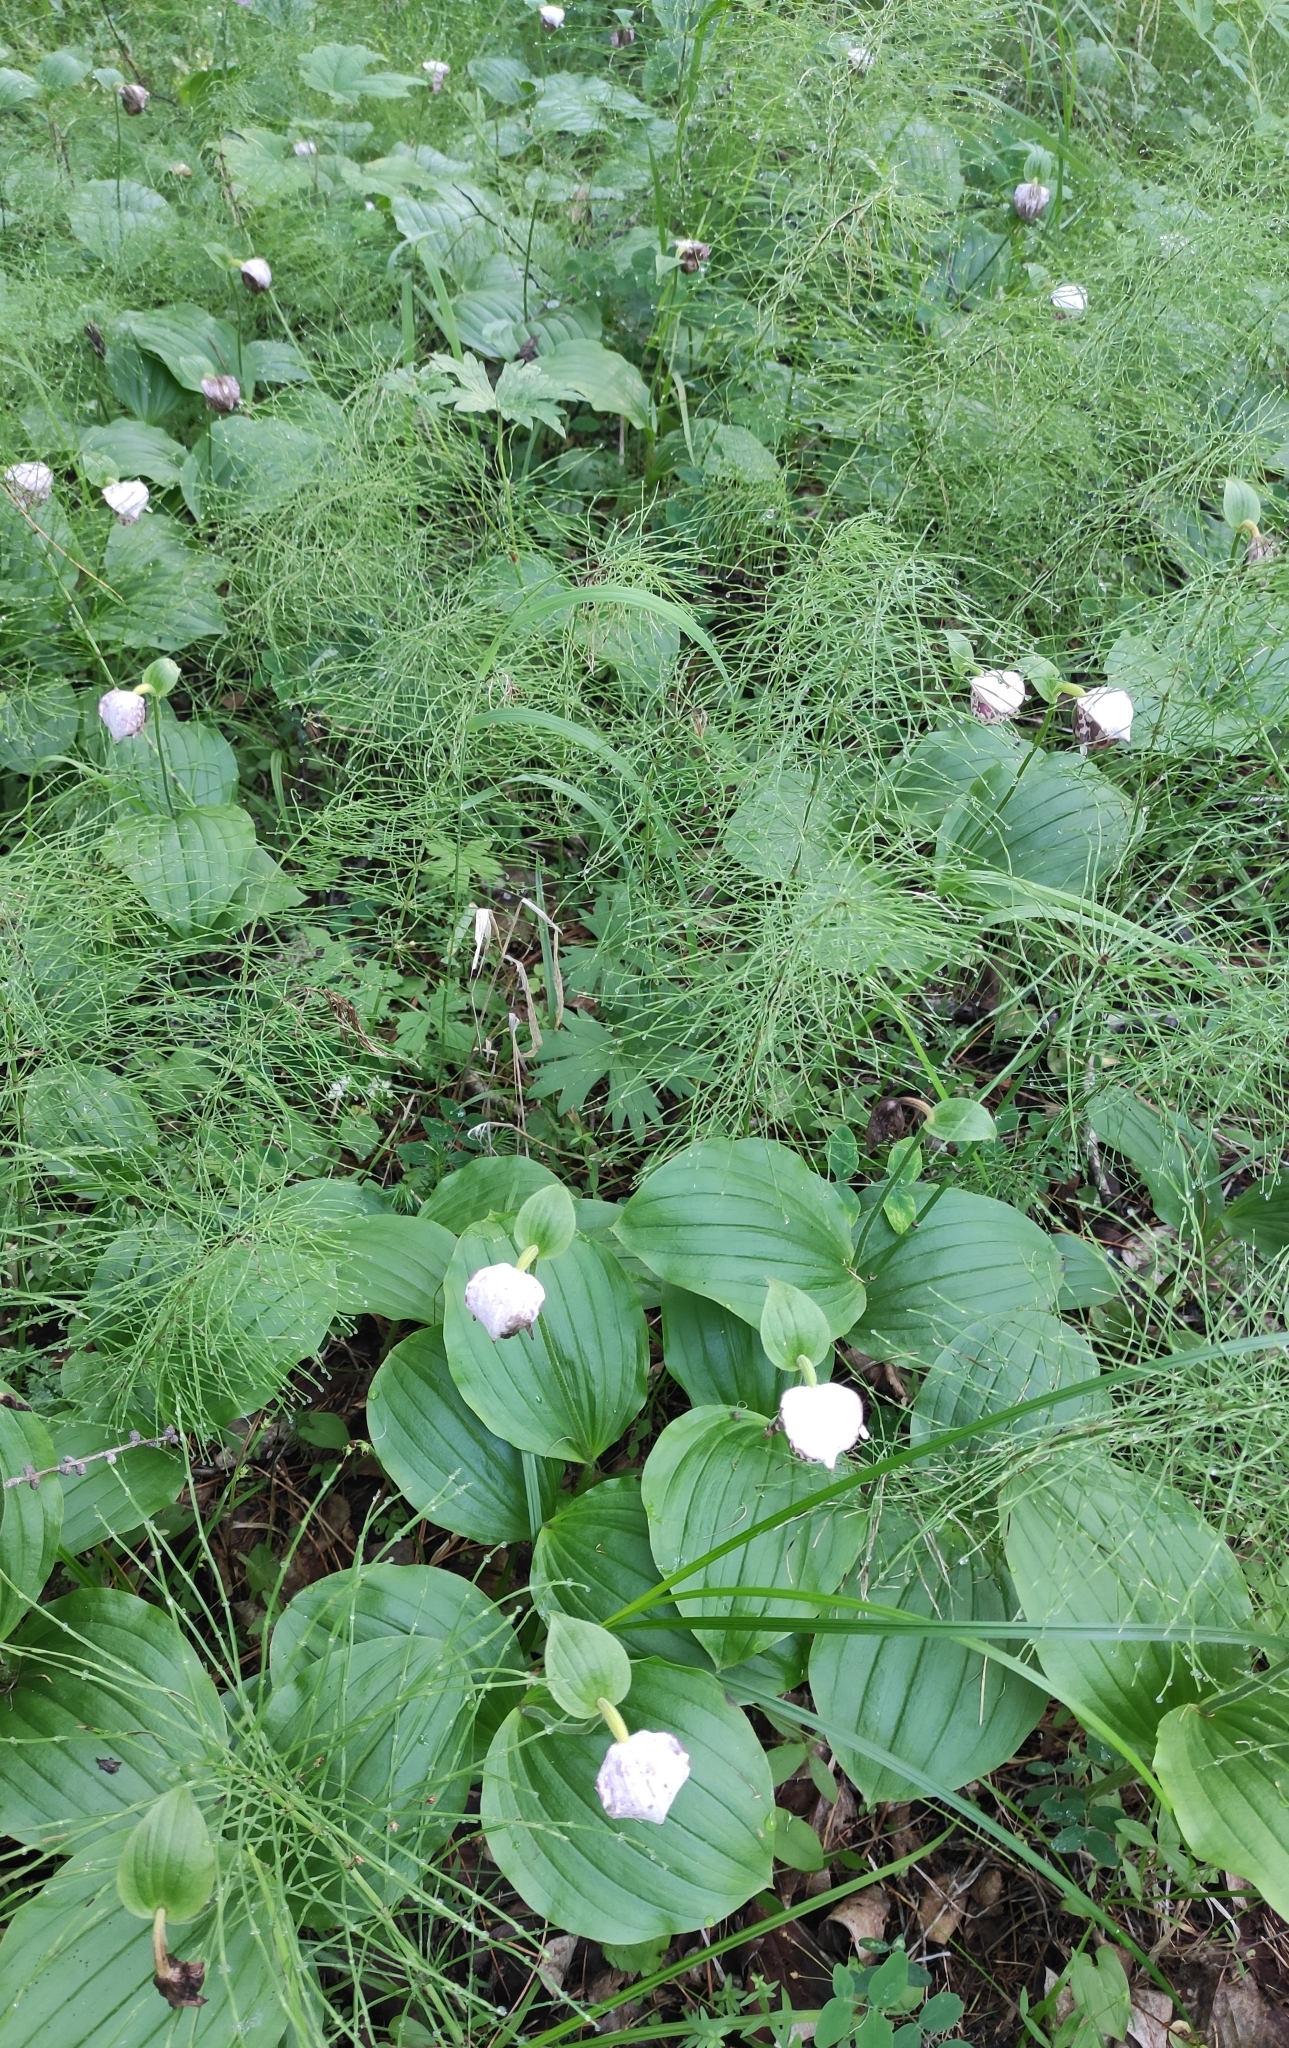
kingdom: Plantae
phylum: Tracheophyta
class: Liliopsida
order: Asparagales
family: Orchidaceae
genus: Cypripedium
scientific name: Cypripedium guttatum
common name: Pink lady slipper
